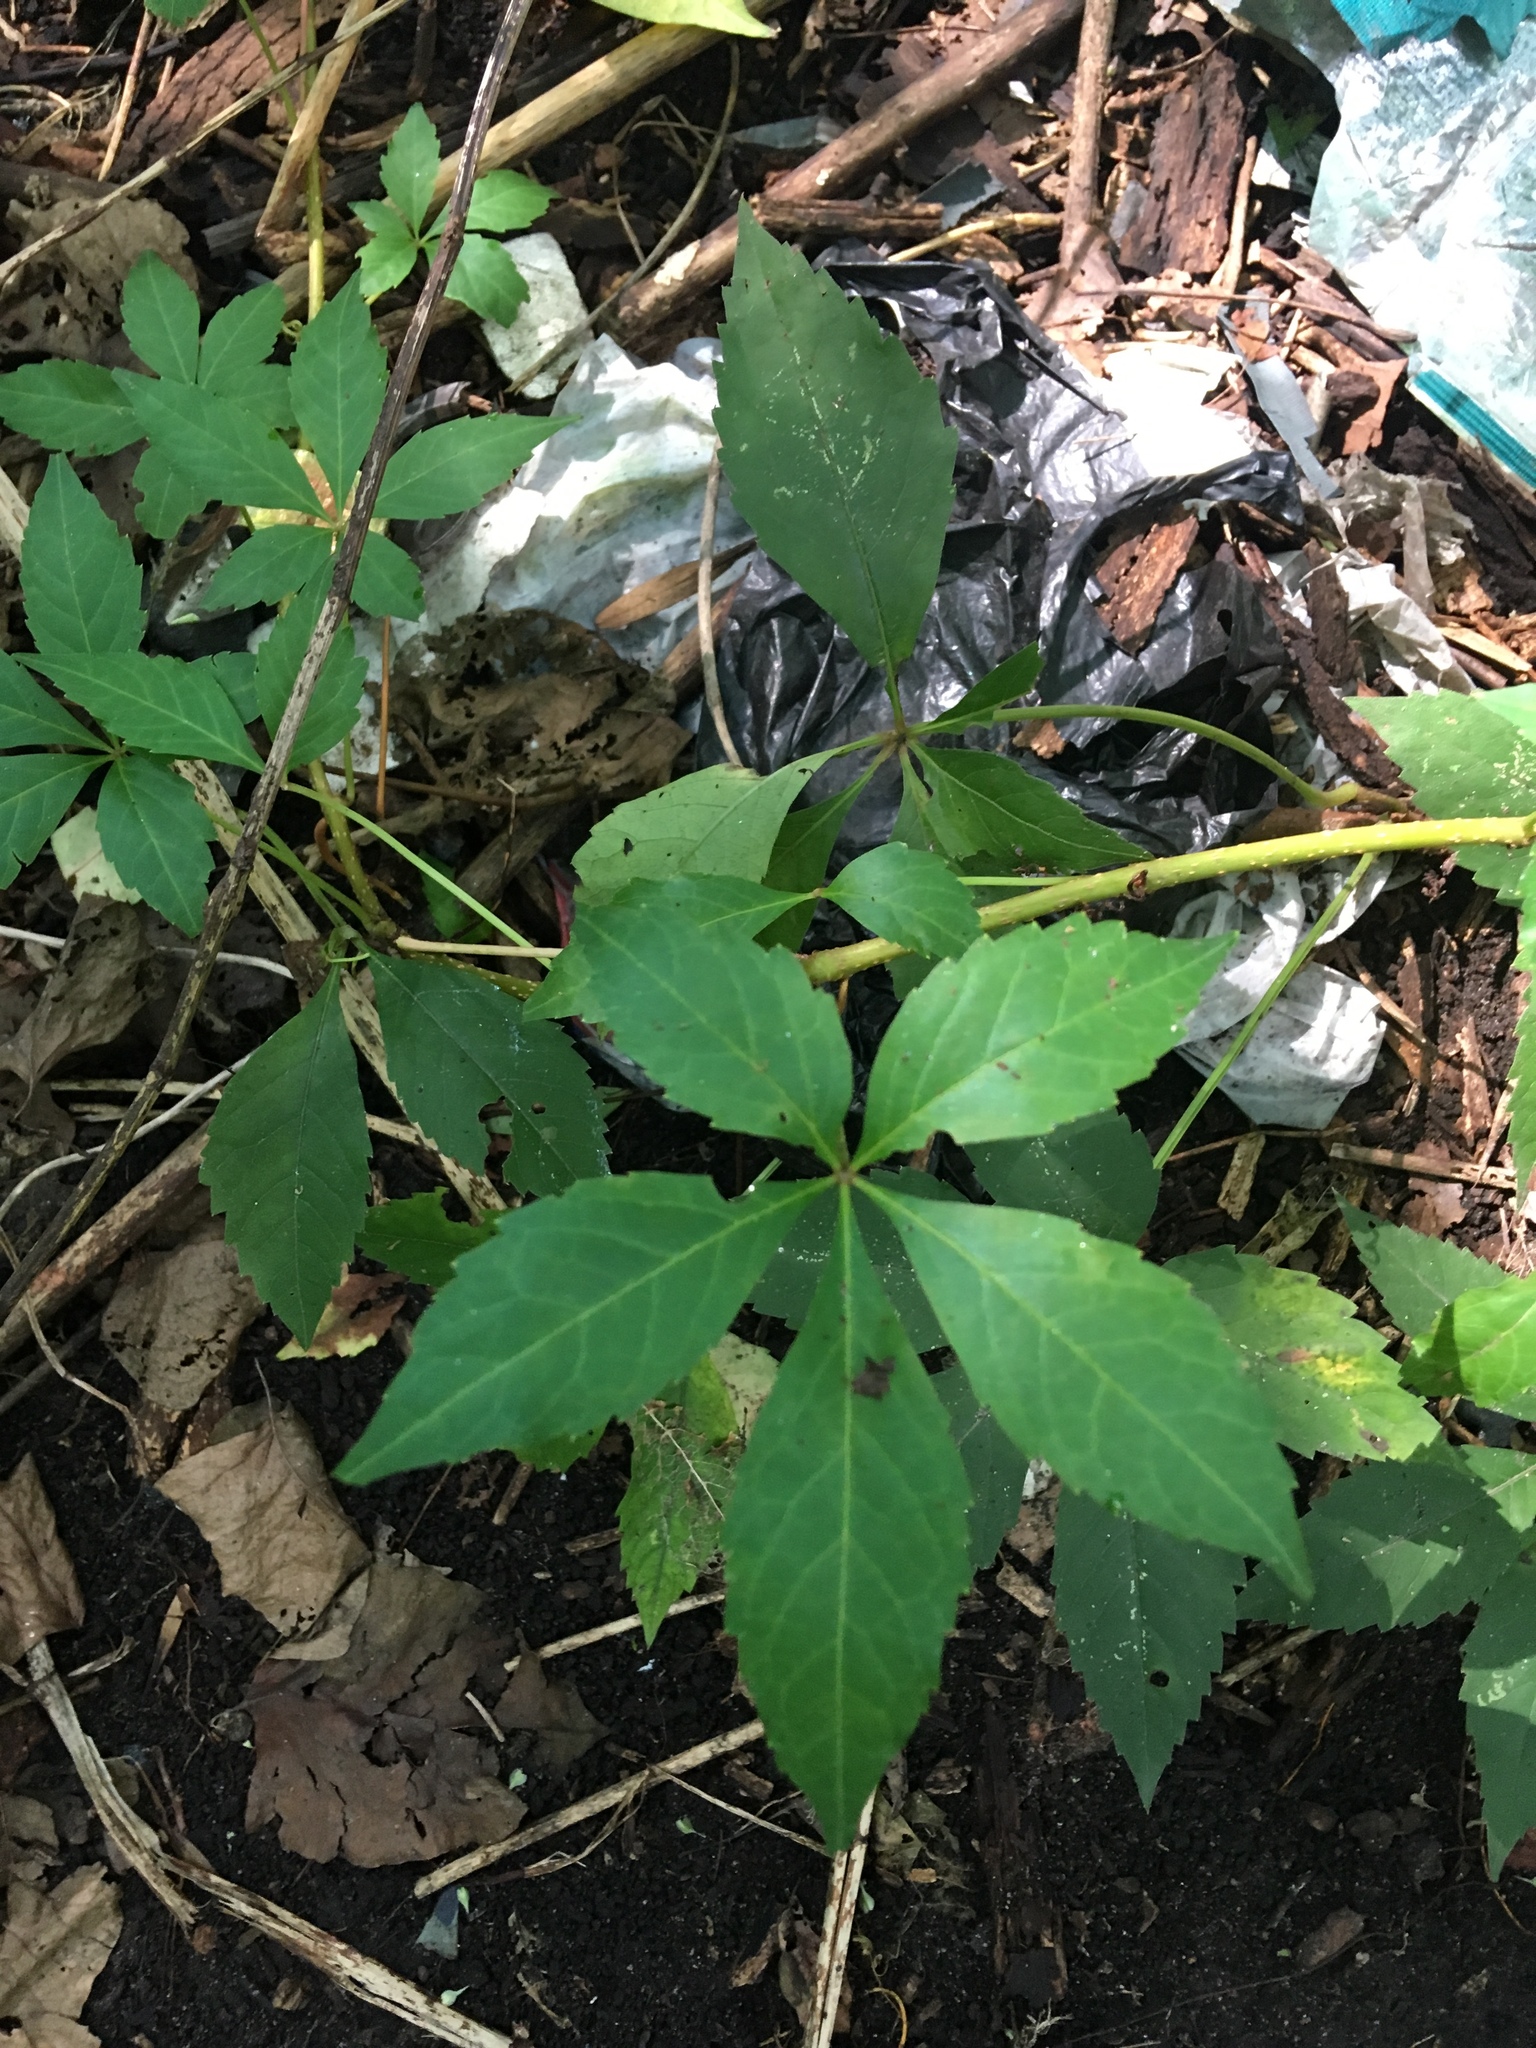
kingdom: Plantae
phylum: Tracheophyta
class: Magnoliopsida
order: Vitales
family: Vitaceae
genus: Parthenocissus
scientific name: Parthenocissus quinquefolia
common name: Virginia-creeper
